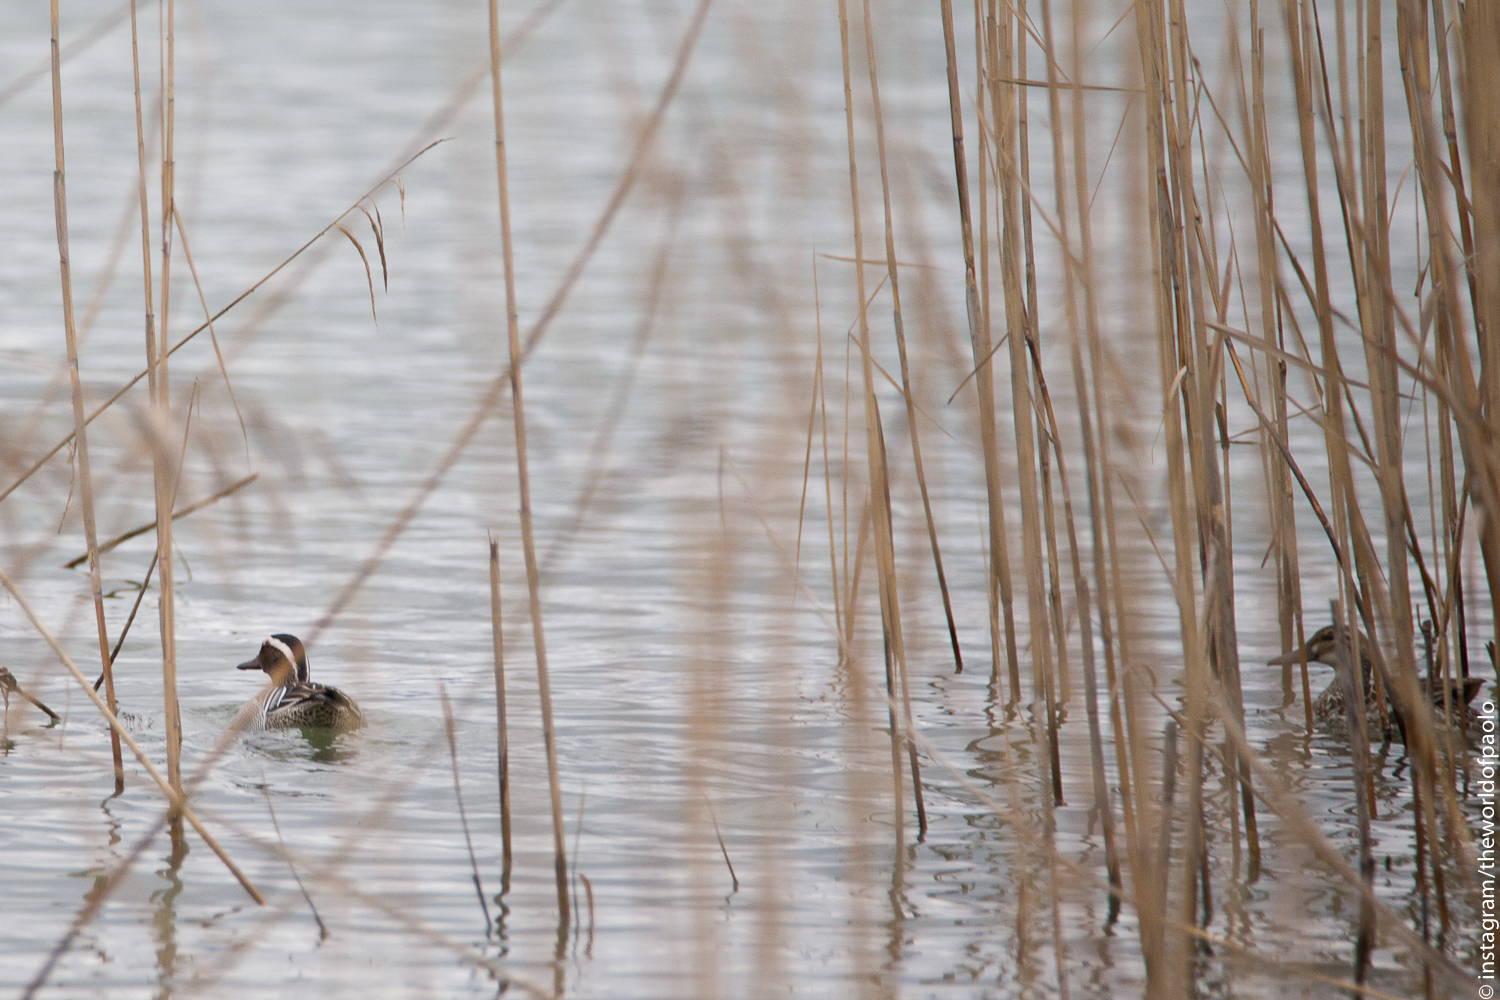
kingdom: Animalia
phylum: Chordata
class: Aves
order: Anseriformes
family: Anatidae
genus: Spatula
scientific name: Spatula querquedula
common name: Garganey
